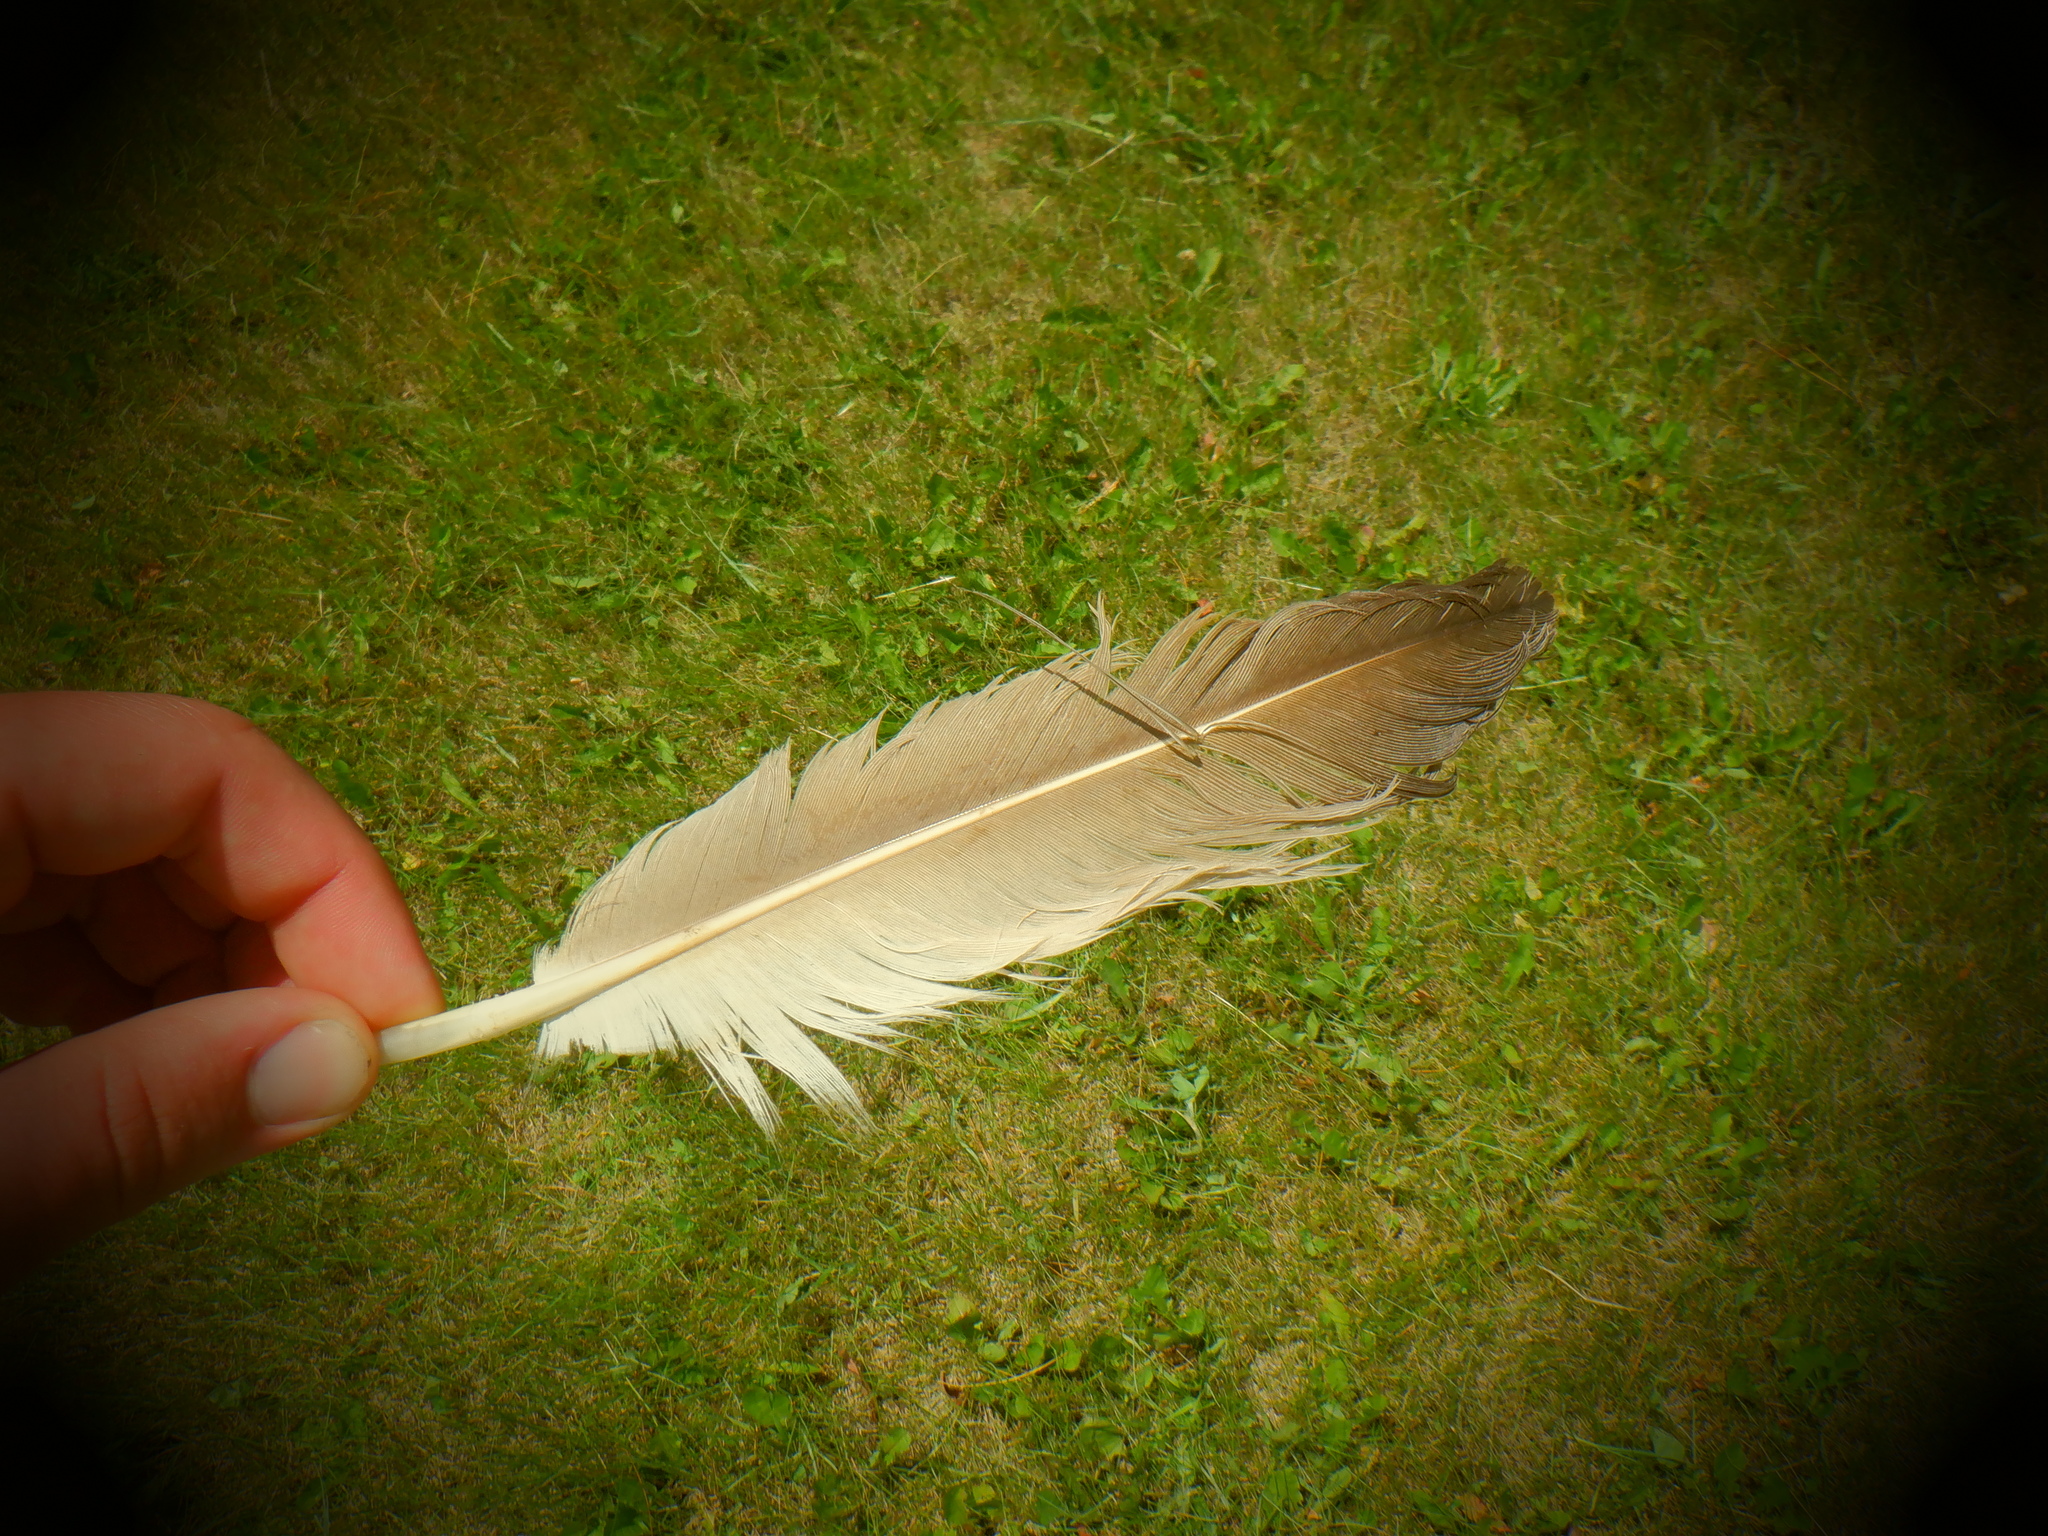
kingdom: Animalia
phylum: Chordata
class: Aves
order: Gruiformes
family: Gruidae
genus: Grus
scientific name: Grus canadensis
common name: Sandhill crane
